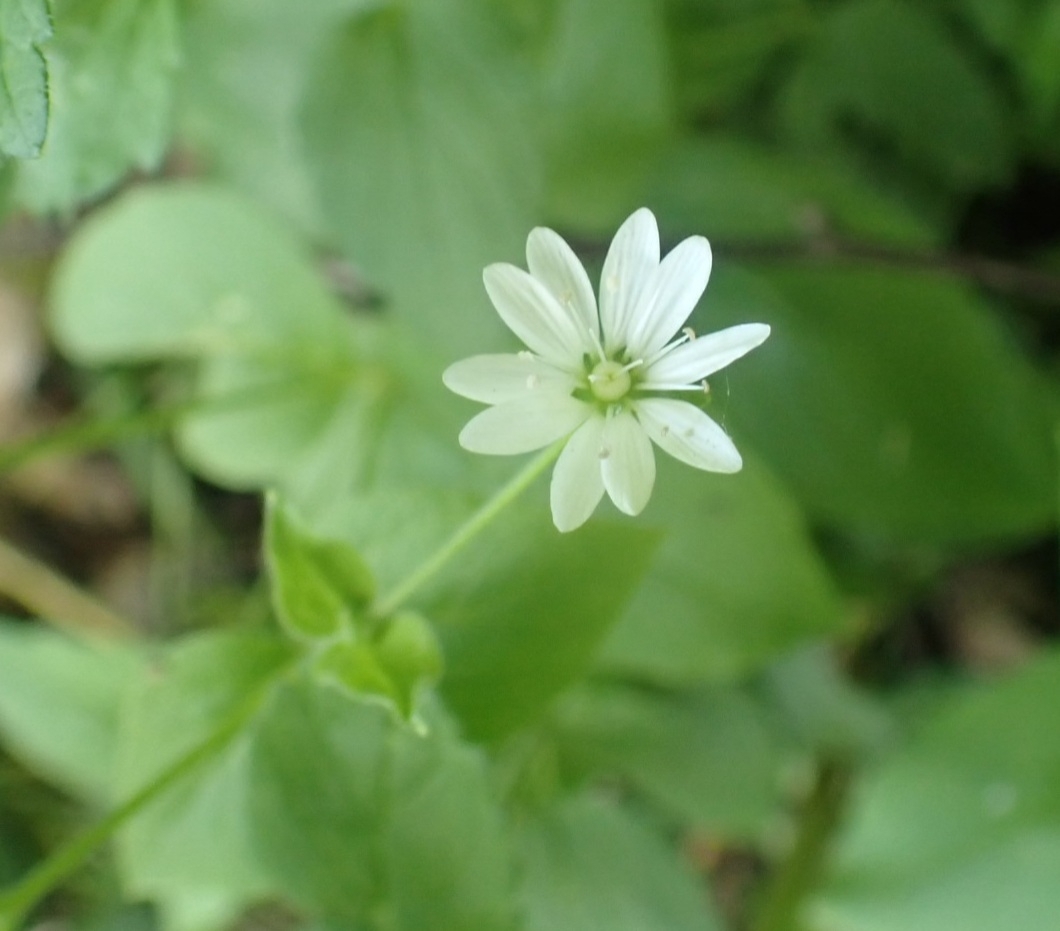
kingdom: Plantae
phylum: Tracheophyta
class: Magnoliopsida
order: Caryophyllales
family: Caryophyllaceae
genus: Stellaria
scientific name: Stellaria bungeana
